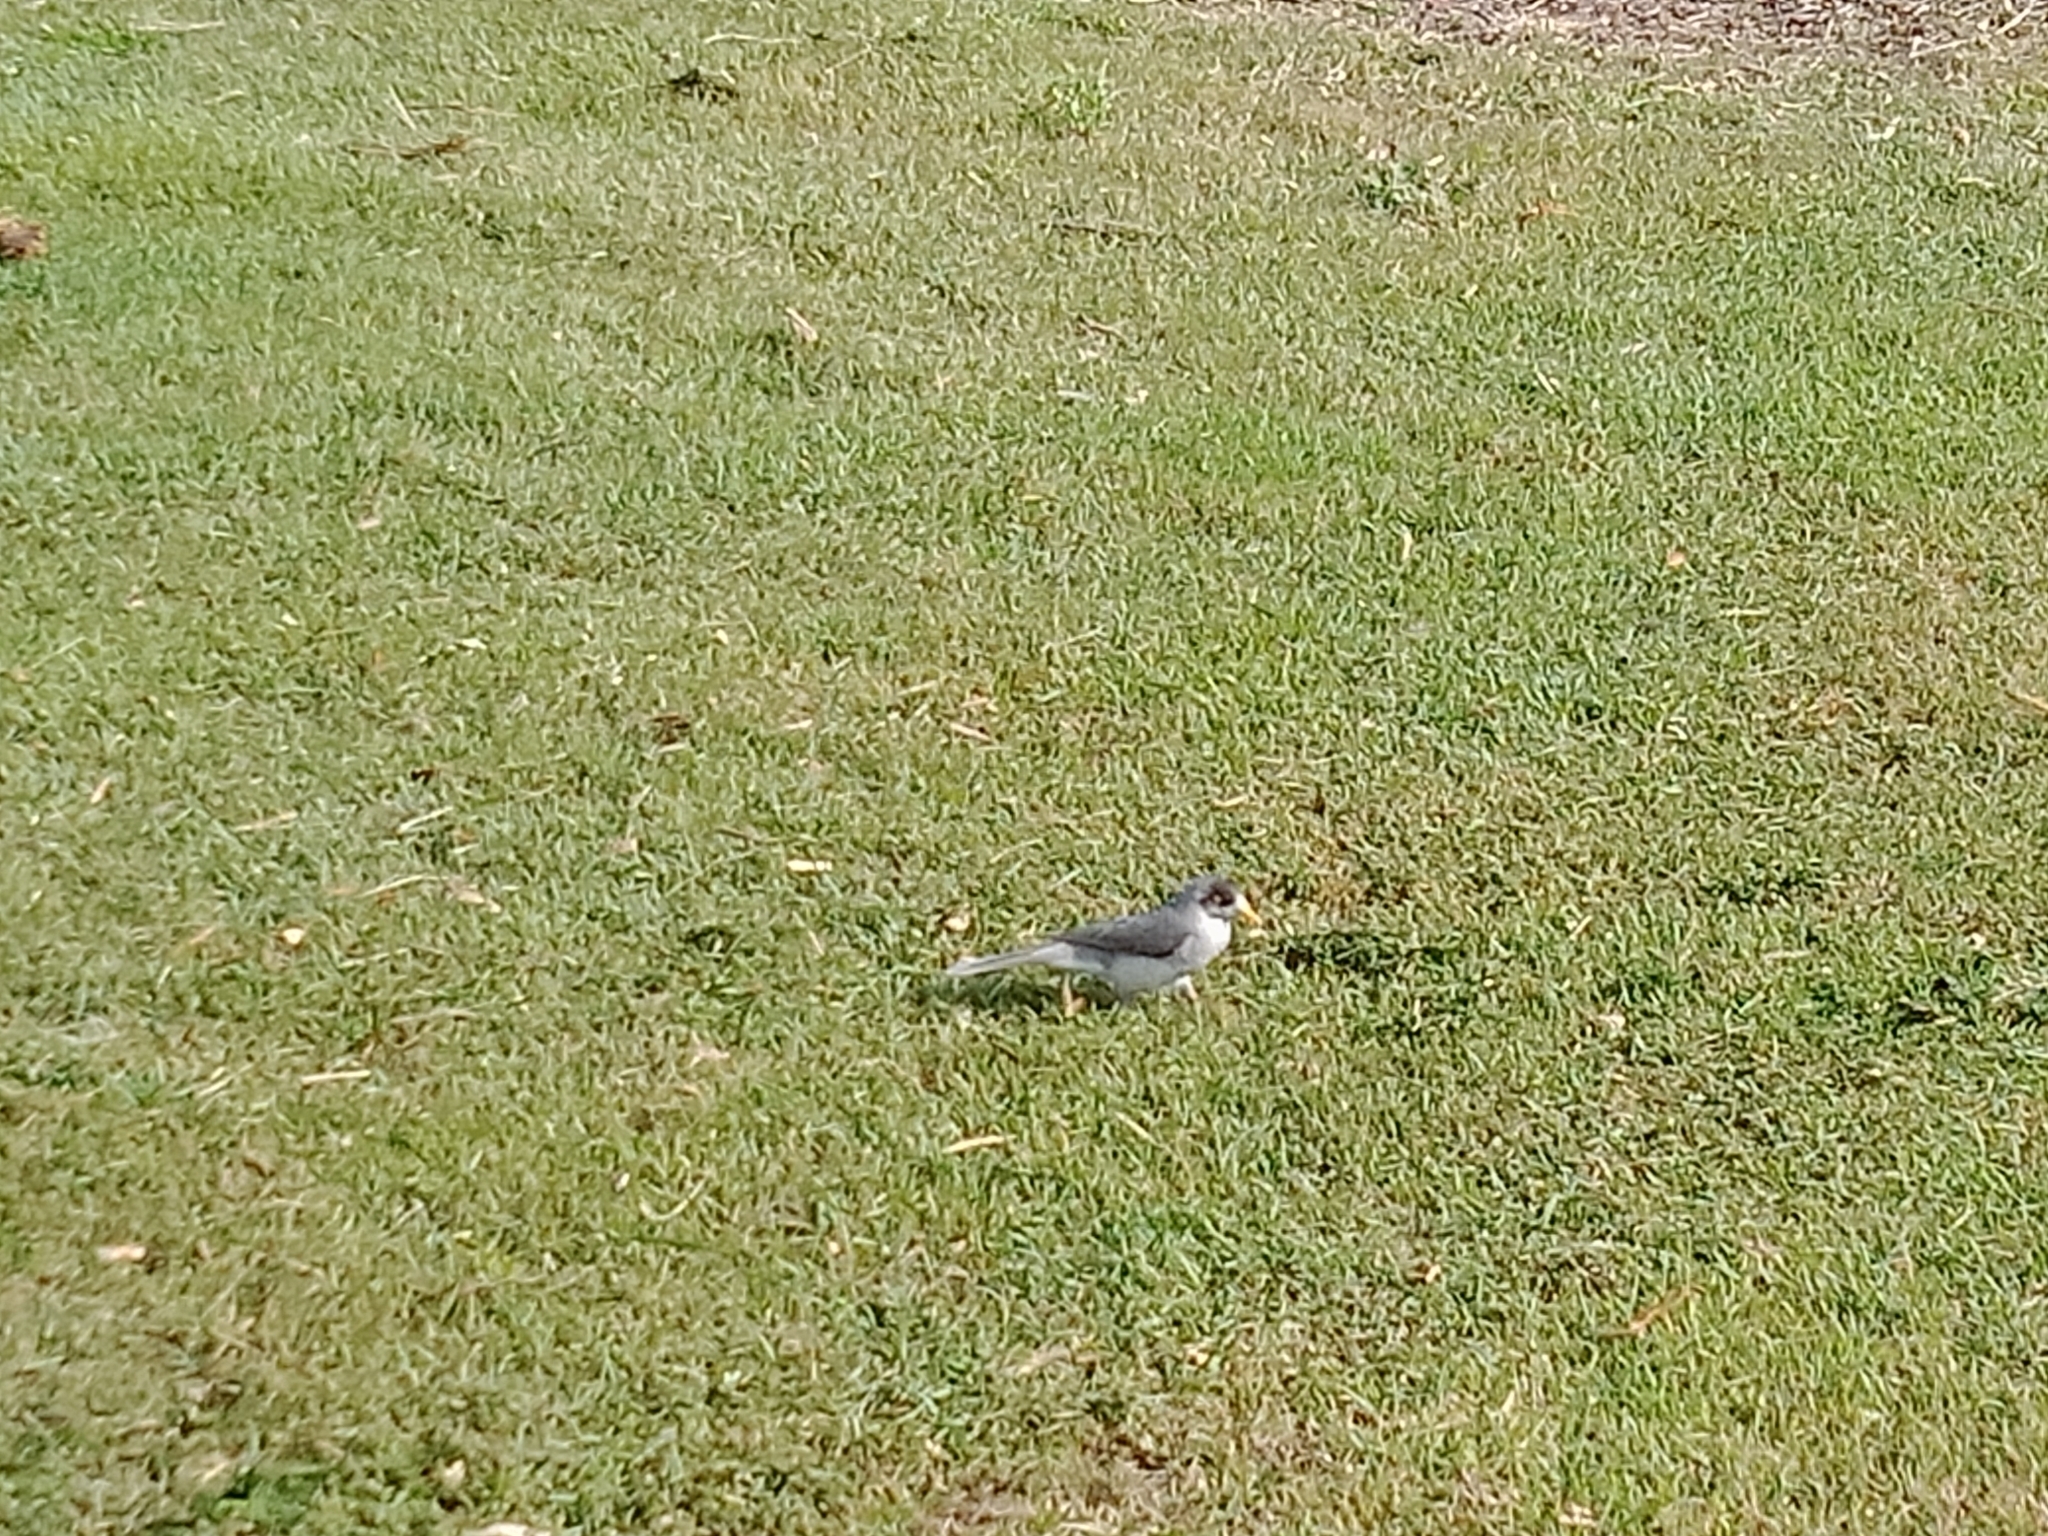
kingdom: Animalia
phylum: Chordata
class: Aves
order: Passeriformes
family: Meliphagidae
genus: Manorina
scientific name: Manorina melanocephala
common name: Noisy miner
